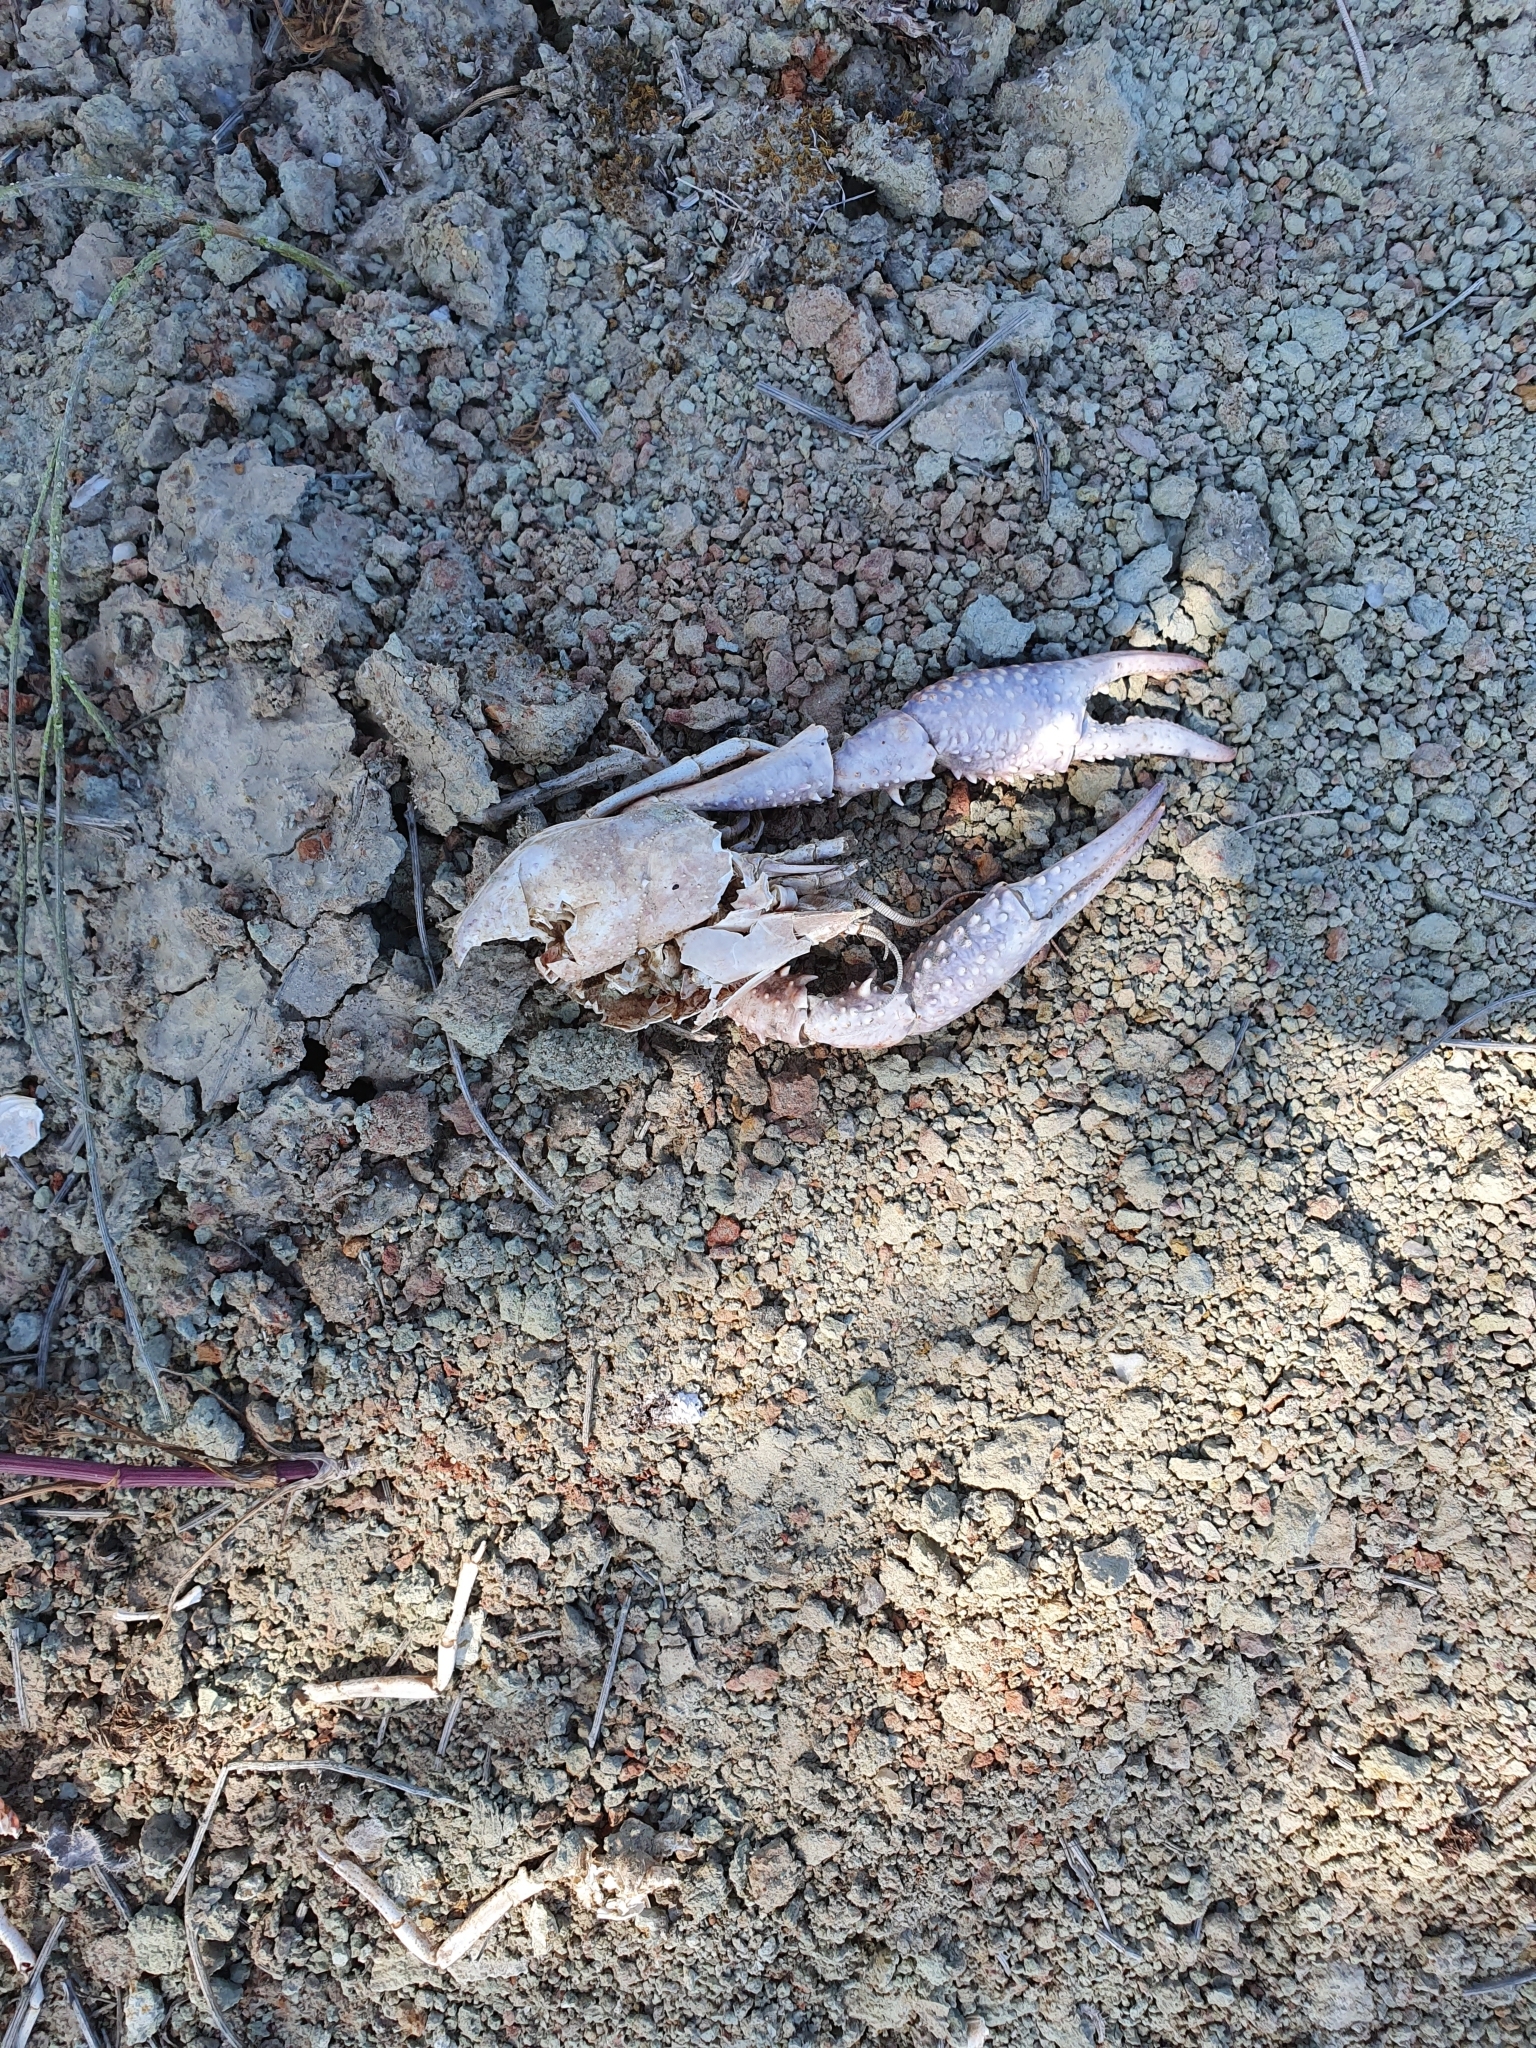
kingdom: Animalia
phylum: Arthropoda
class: Malacostraca
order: Decapoda
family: Cambaridae
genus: Procambarus
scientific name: Procambarus clarkii
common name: Red swamp crayfish
